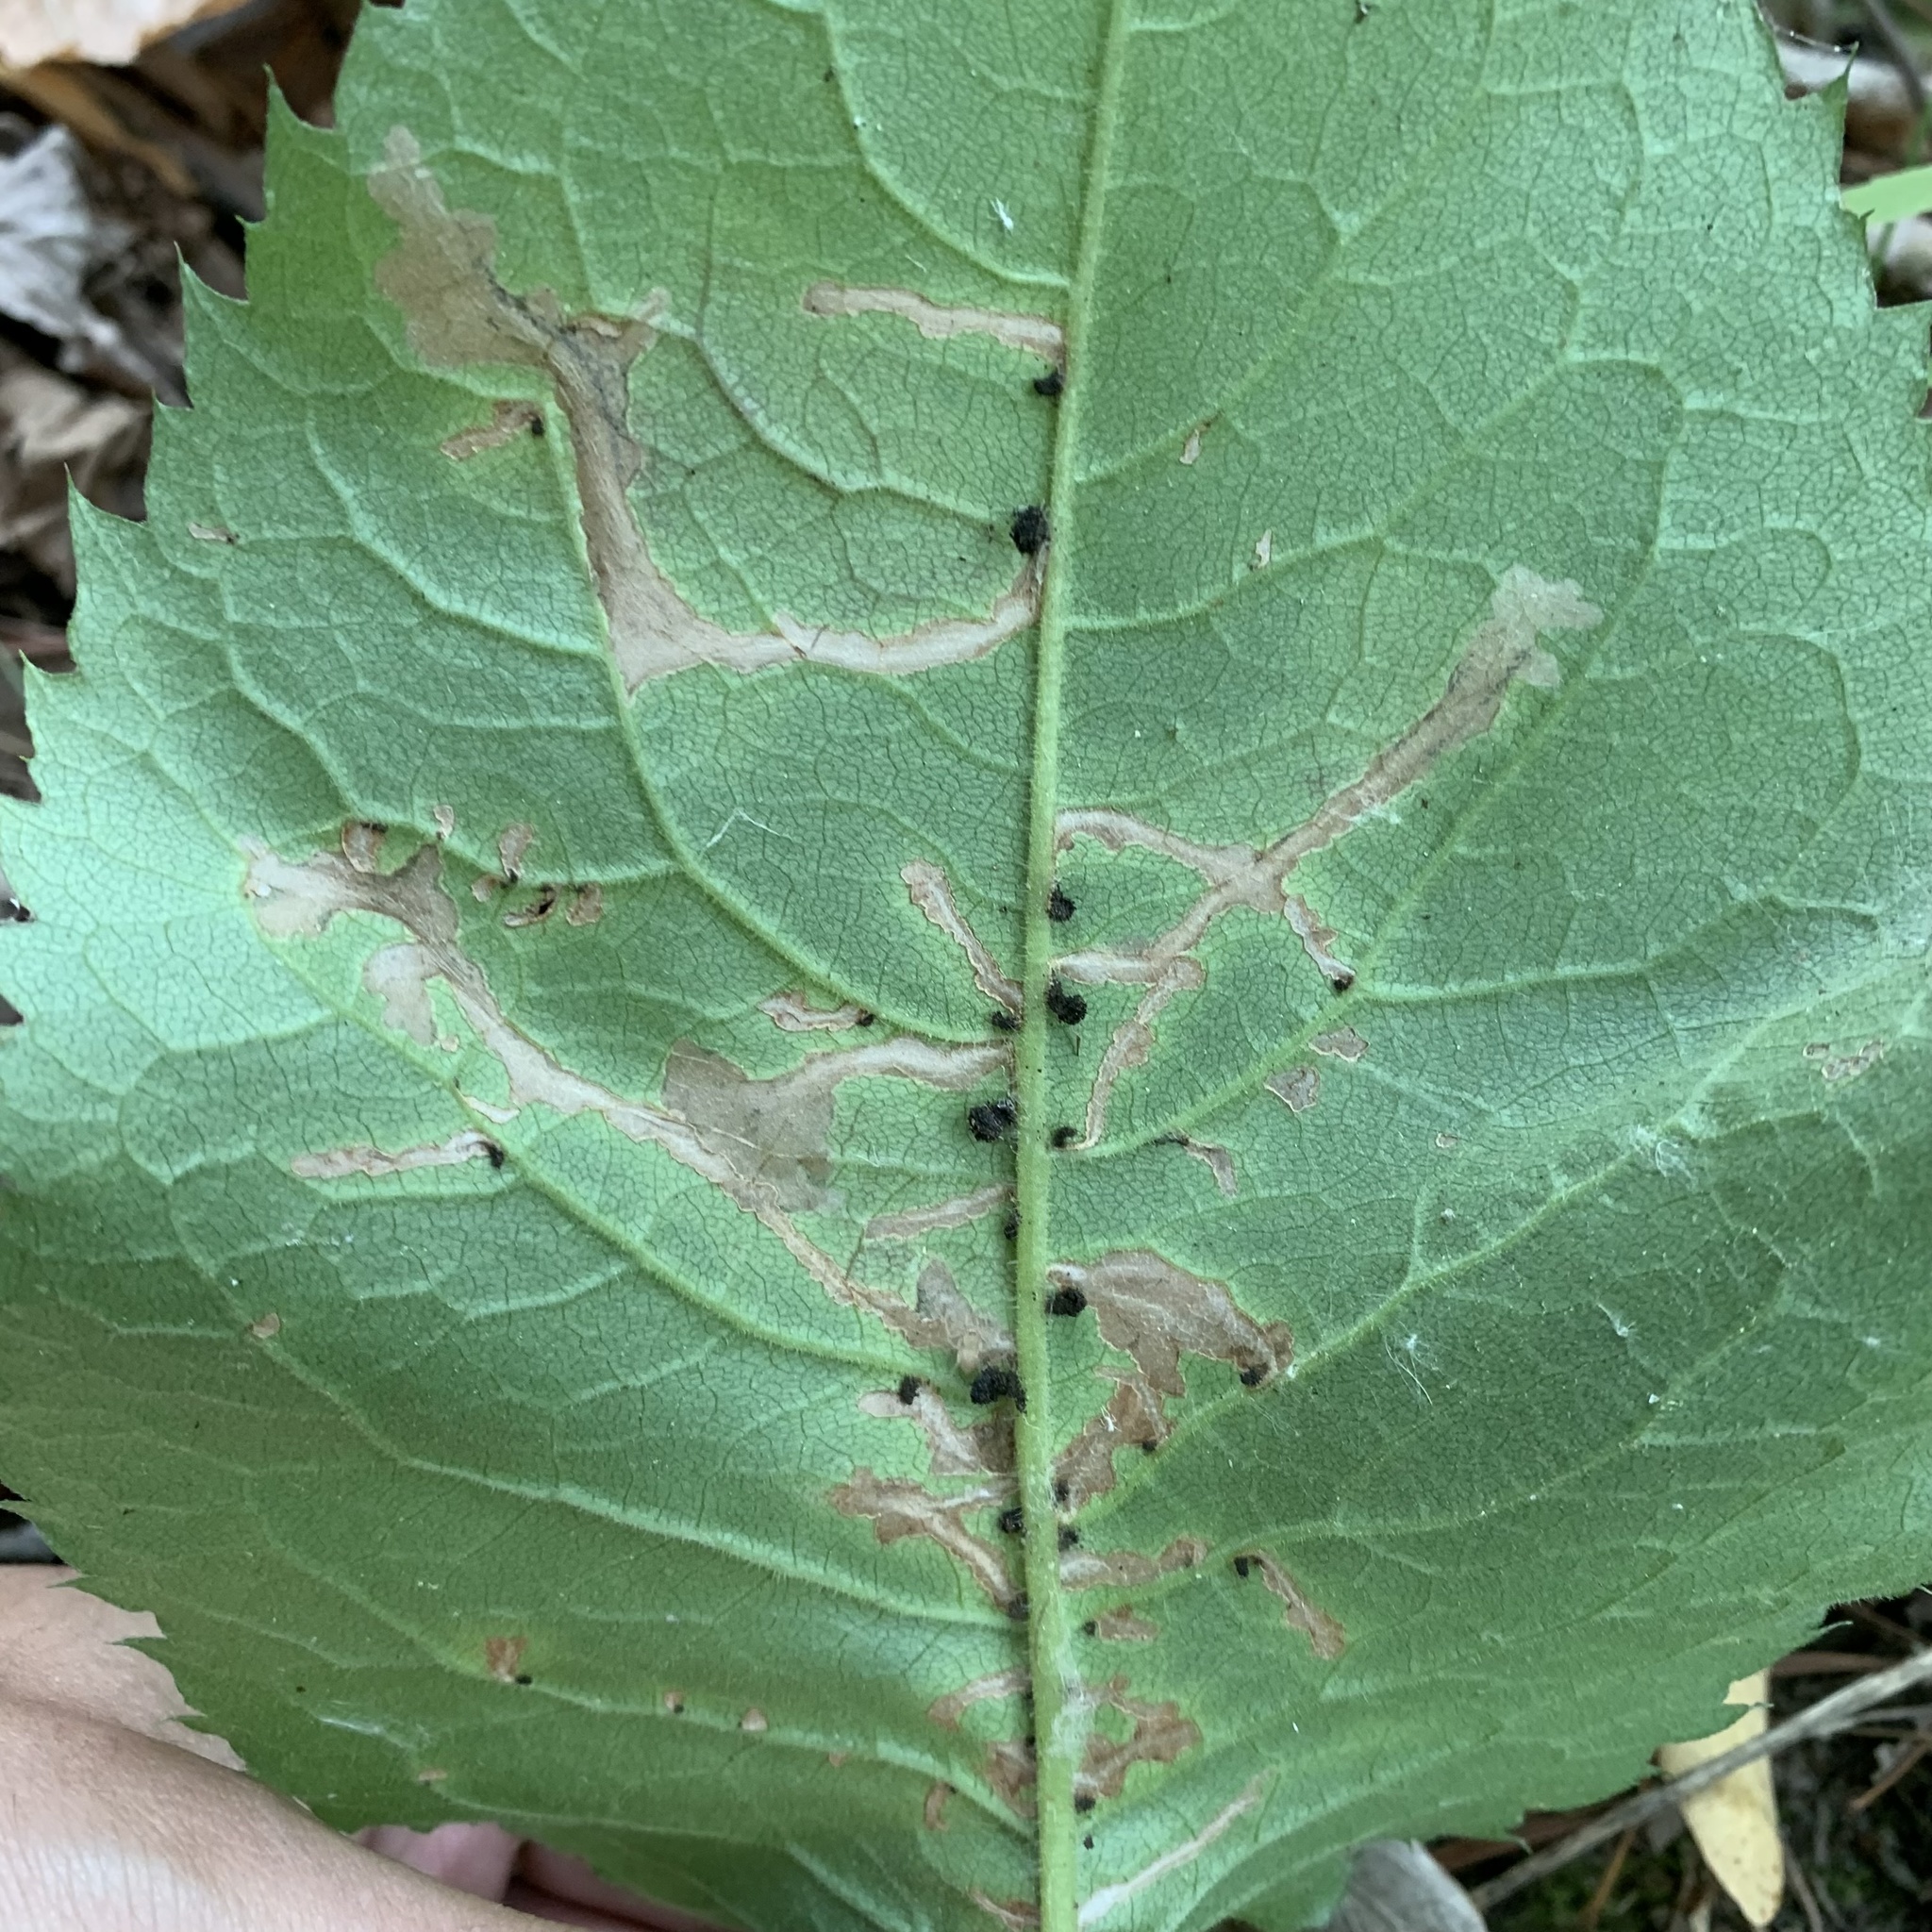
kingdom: Animalia
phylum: Arthropoda
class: Insecta
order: Lepidoptera
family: Gelechiidae
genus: Scrobipalpula
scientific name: Scrobipalpula manierreorum
